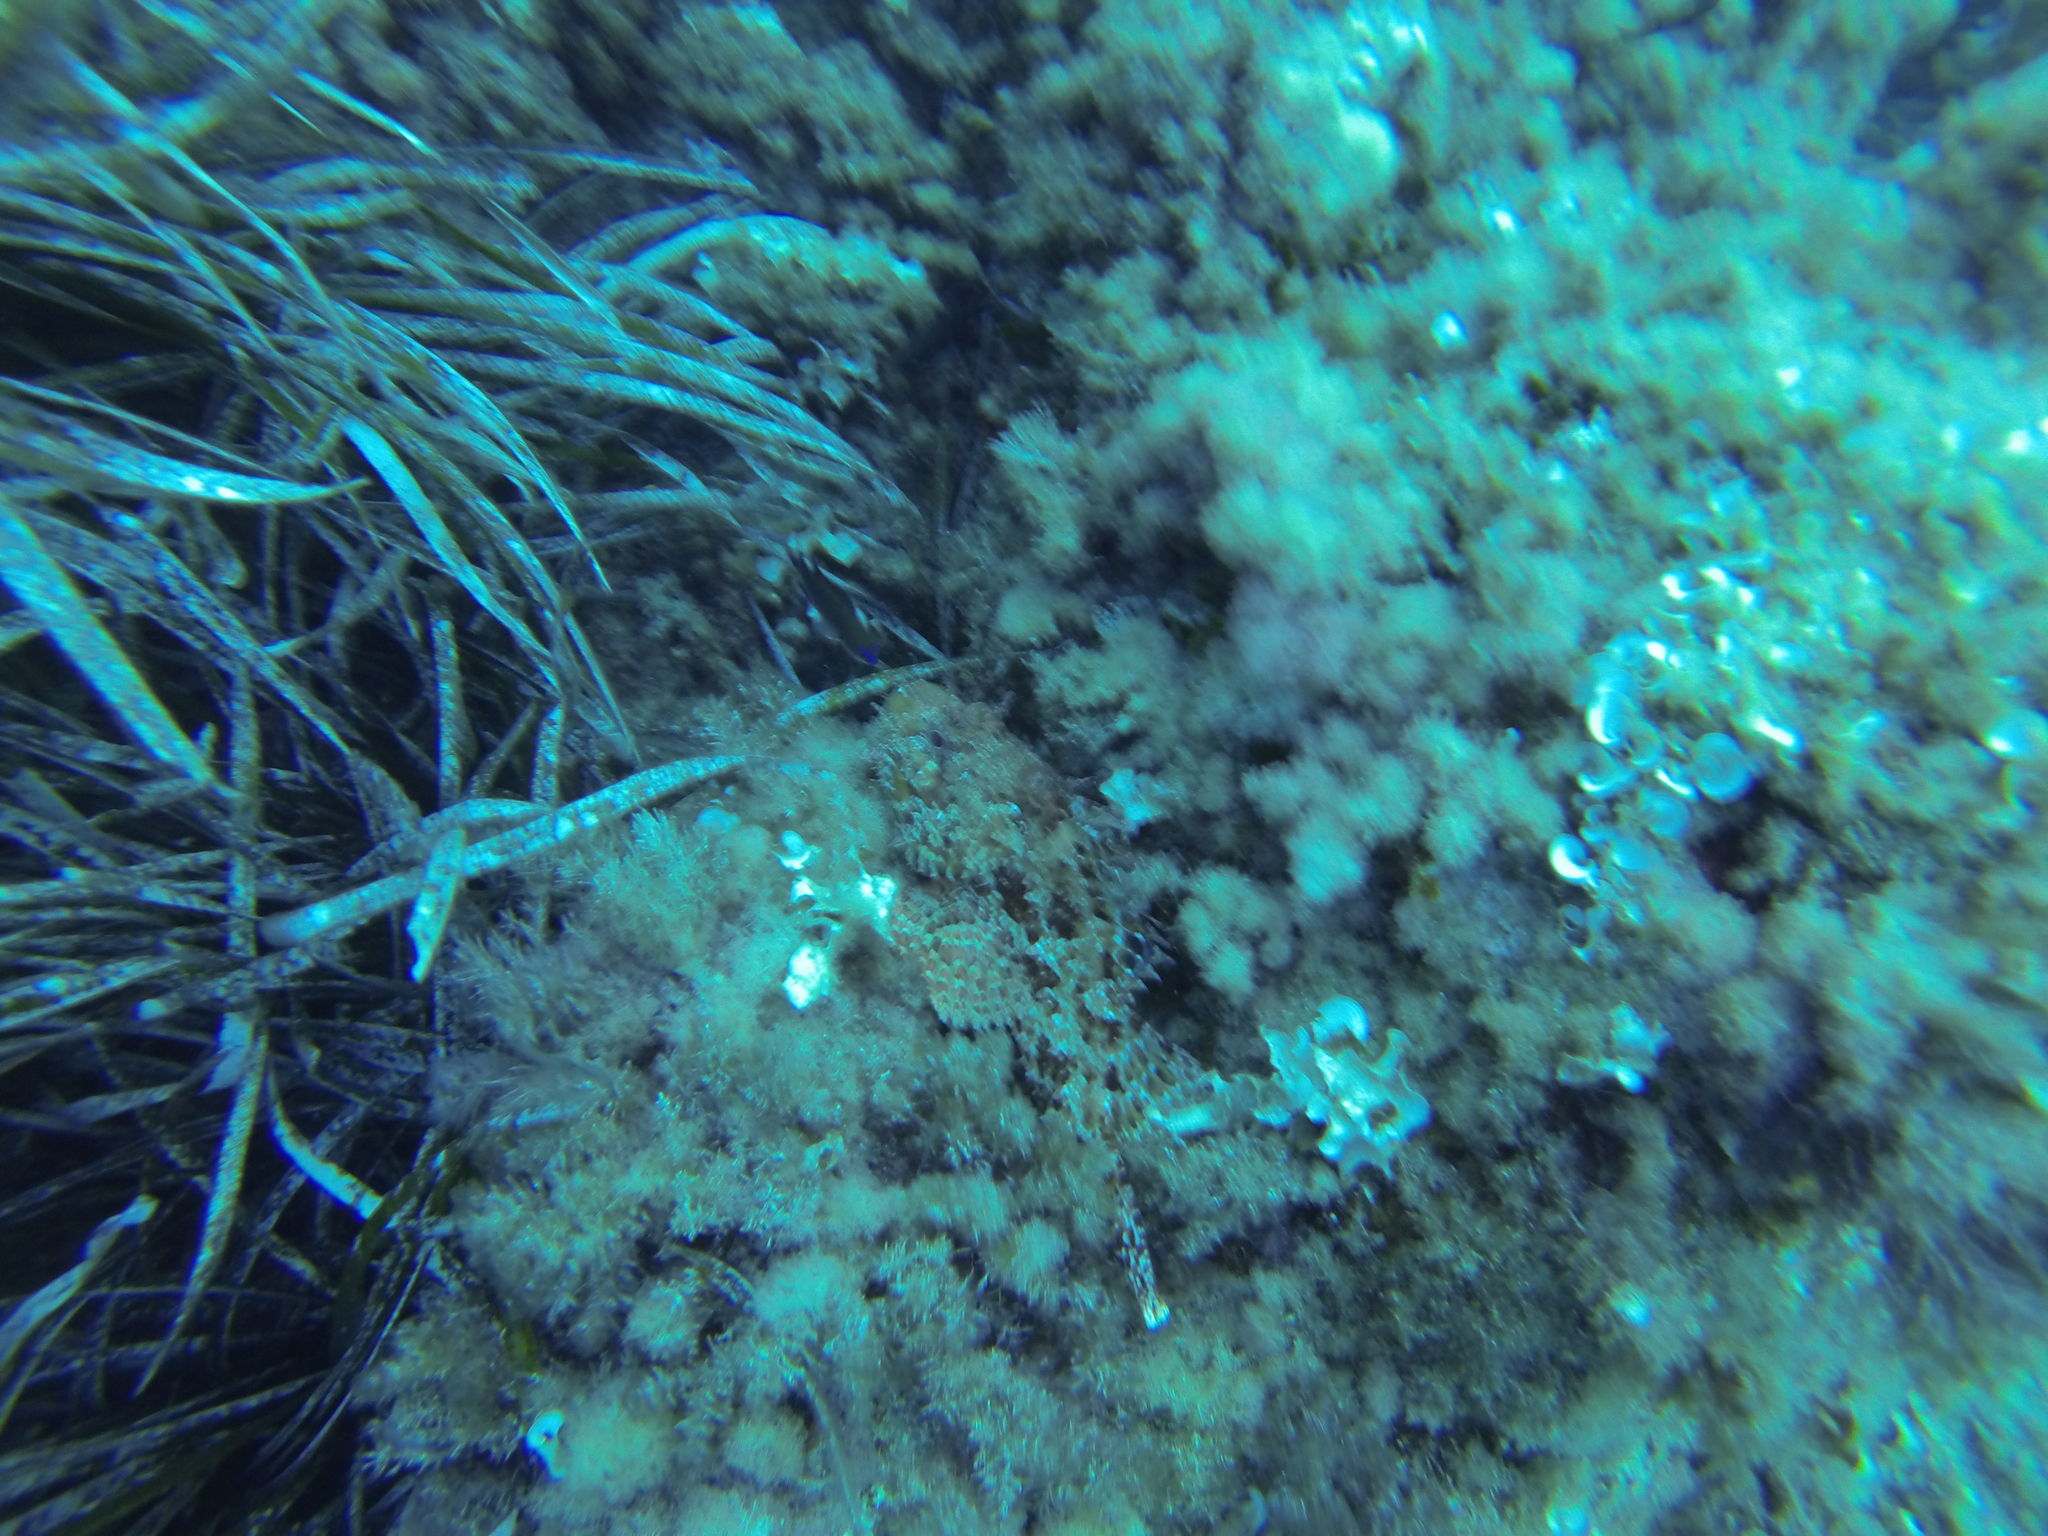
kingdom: Animalia
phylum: Chordata
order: Scorpaeniformes
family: Scorpaenidae
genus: Scorpaena
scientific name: Scorpaena scrofa
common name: Red scorpionfish
